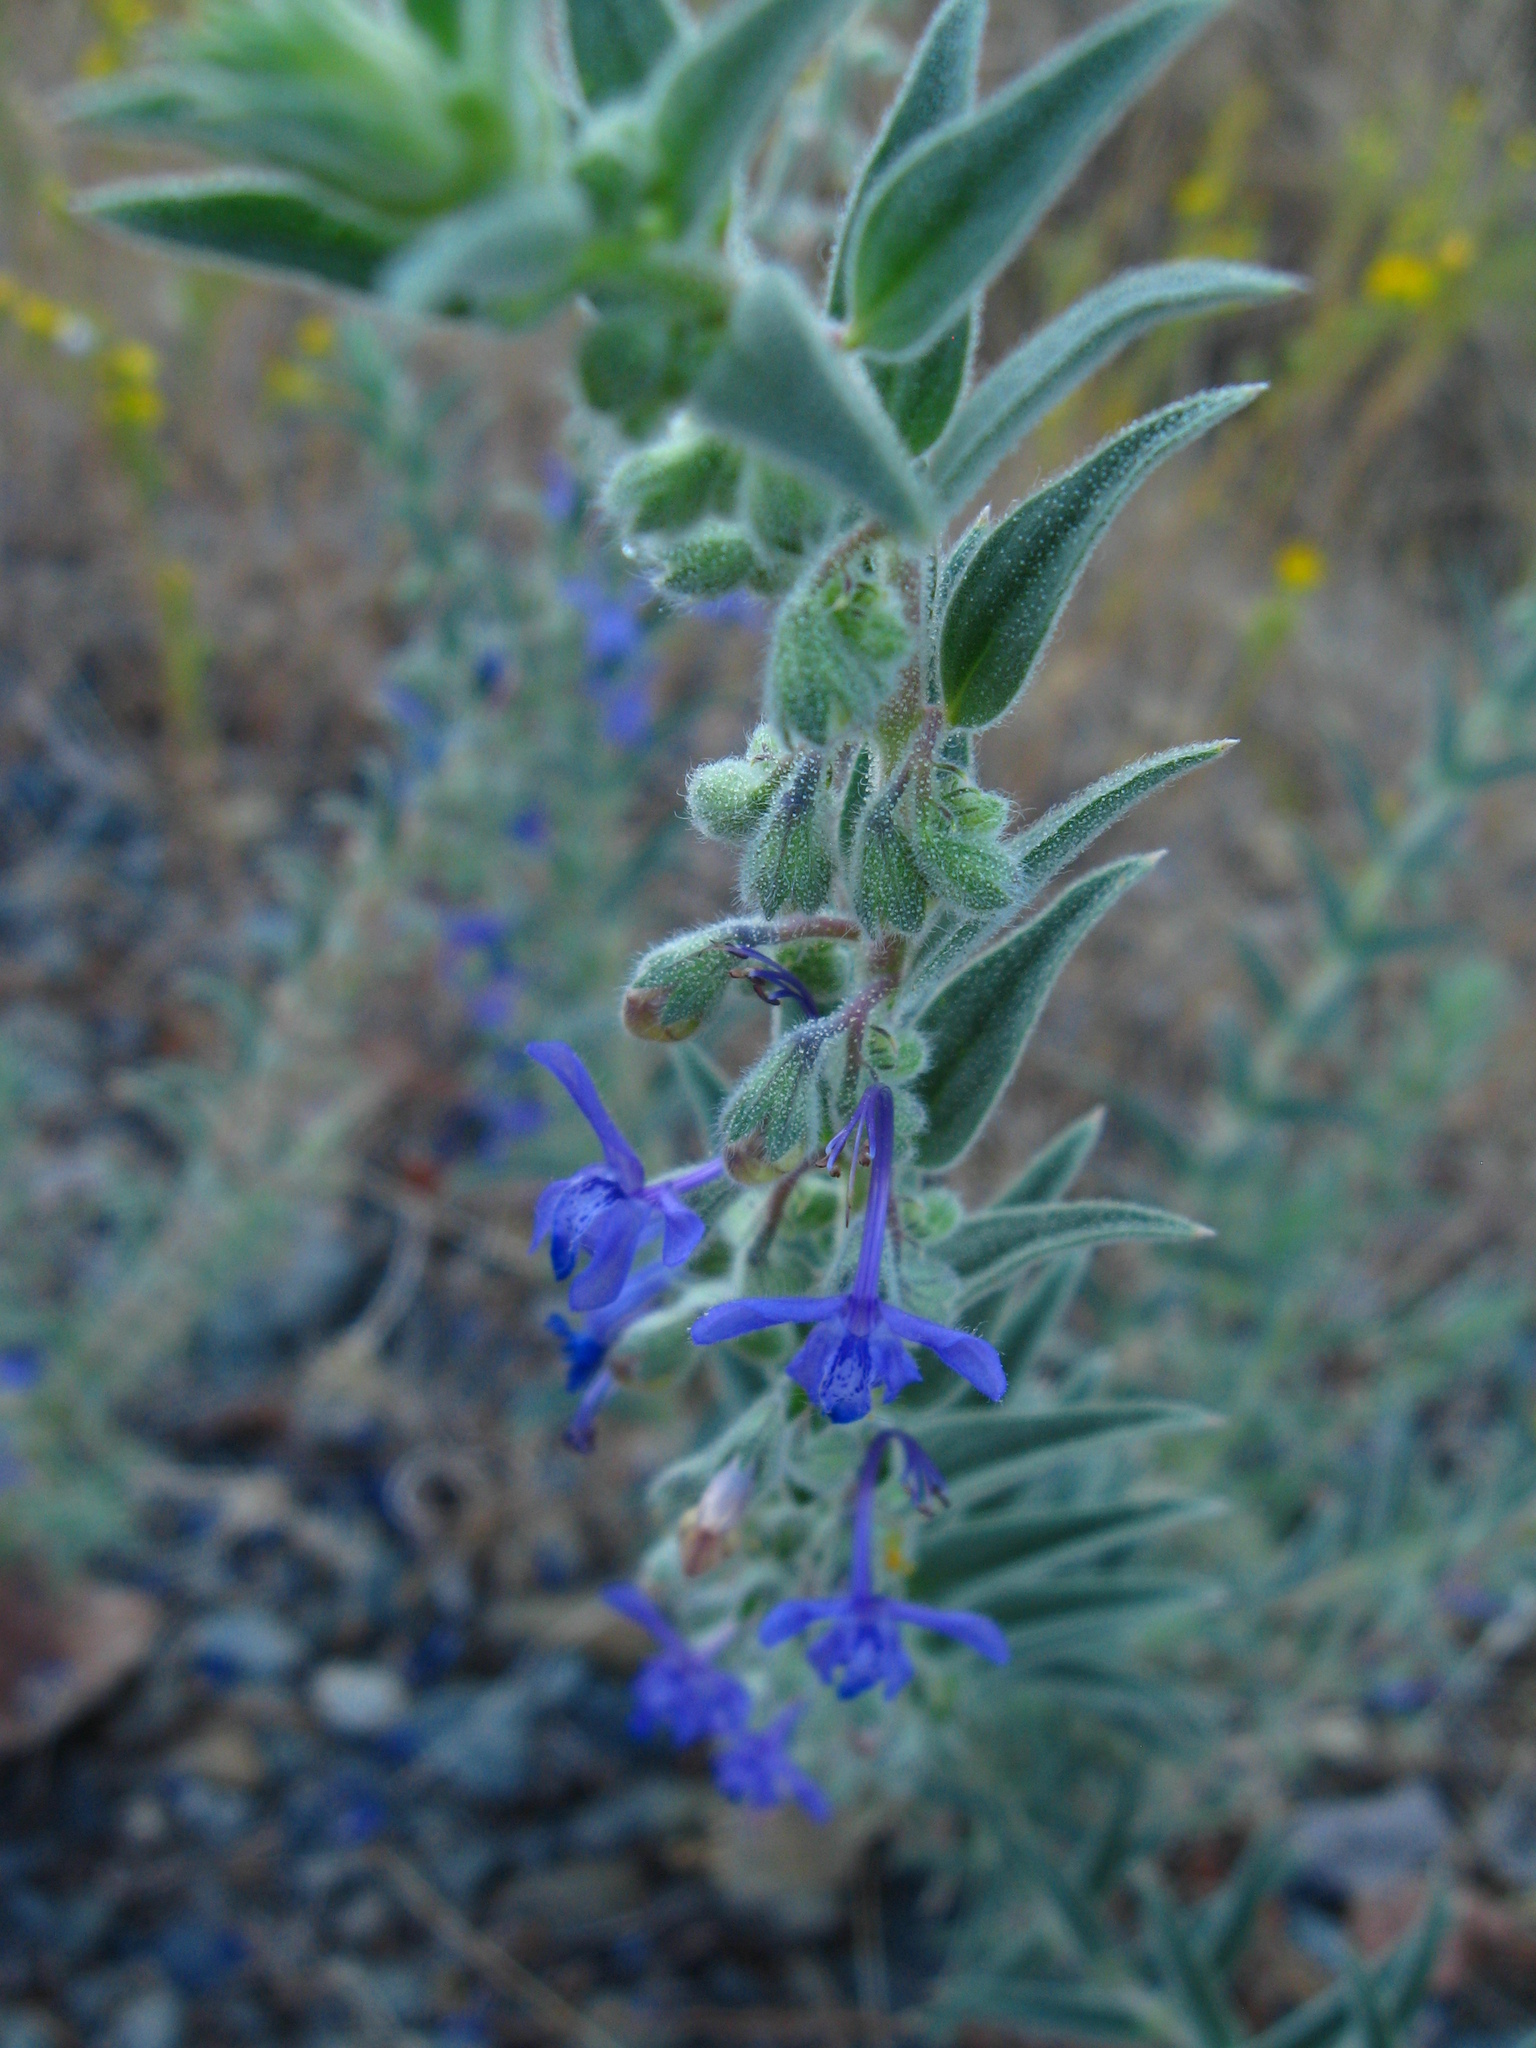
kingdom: Plantae
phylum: Tracheophyta
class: Magnoliopsida
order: Lamiales
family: Lamiaceae
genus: Trichostema
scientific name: Trichostema lanceolatum
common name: Vinegar-weed
